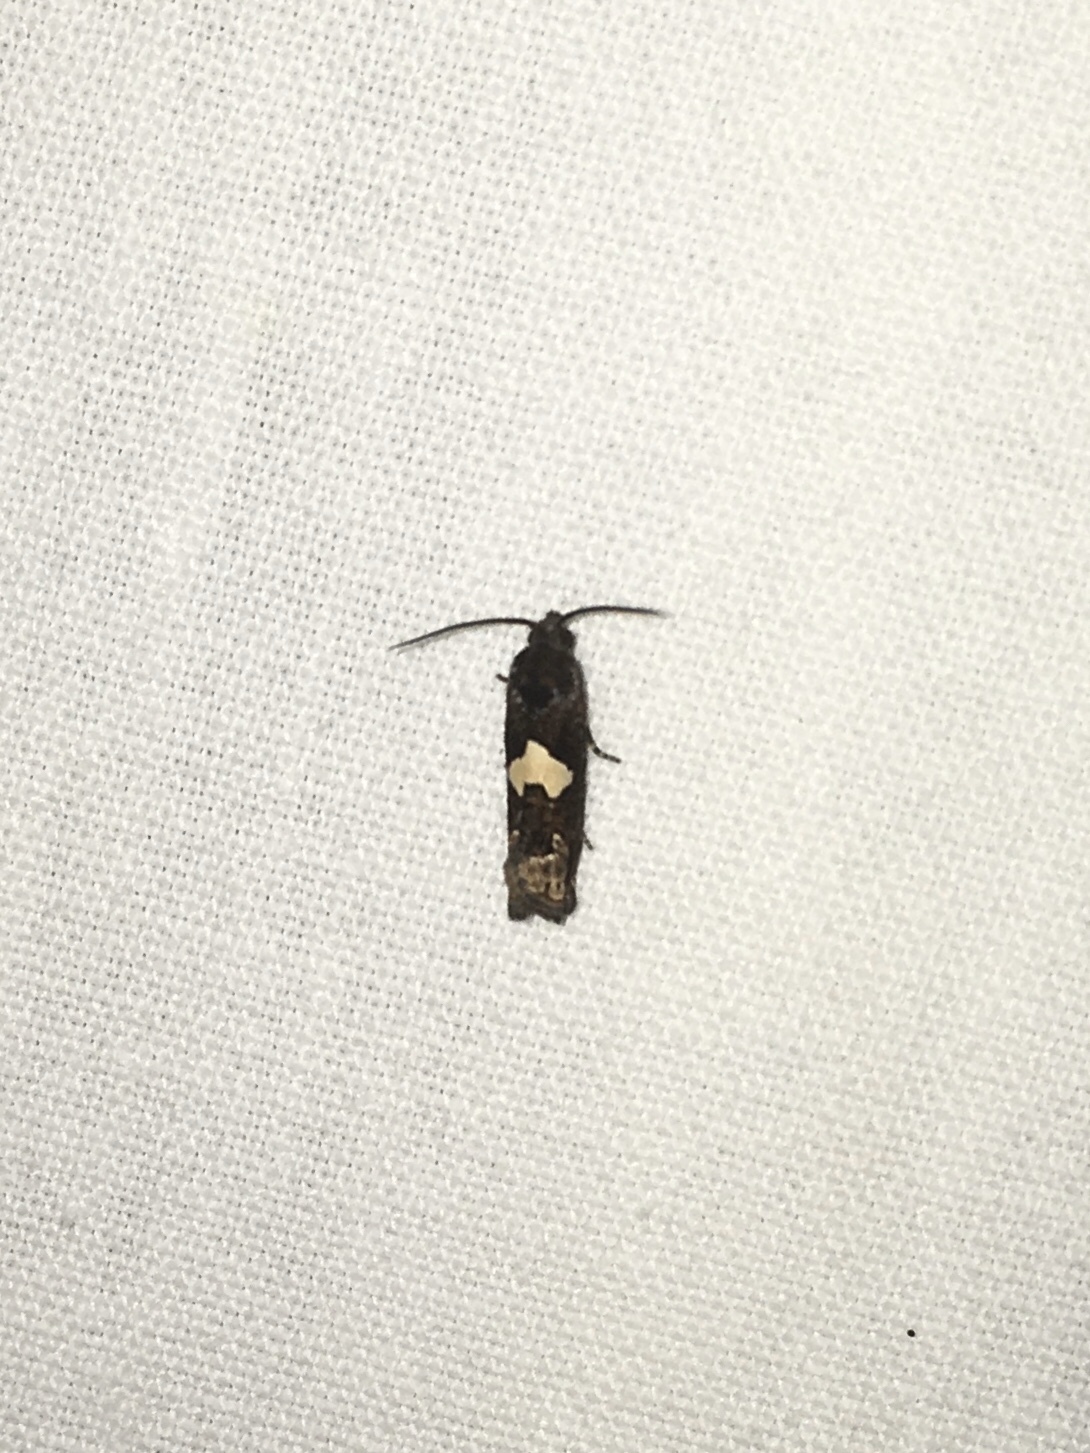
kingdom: Animalia
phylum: Arthropoda
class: Insecta
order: Lepidoptera
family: Tortricidae
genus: Epiblema
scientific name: Epiblema otiosana
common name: Bidens borer moth
